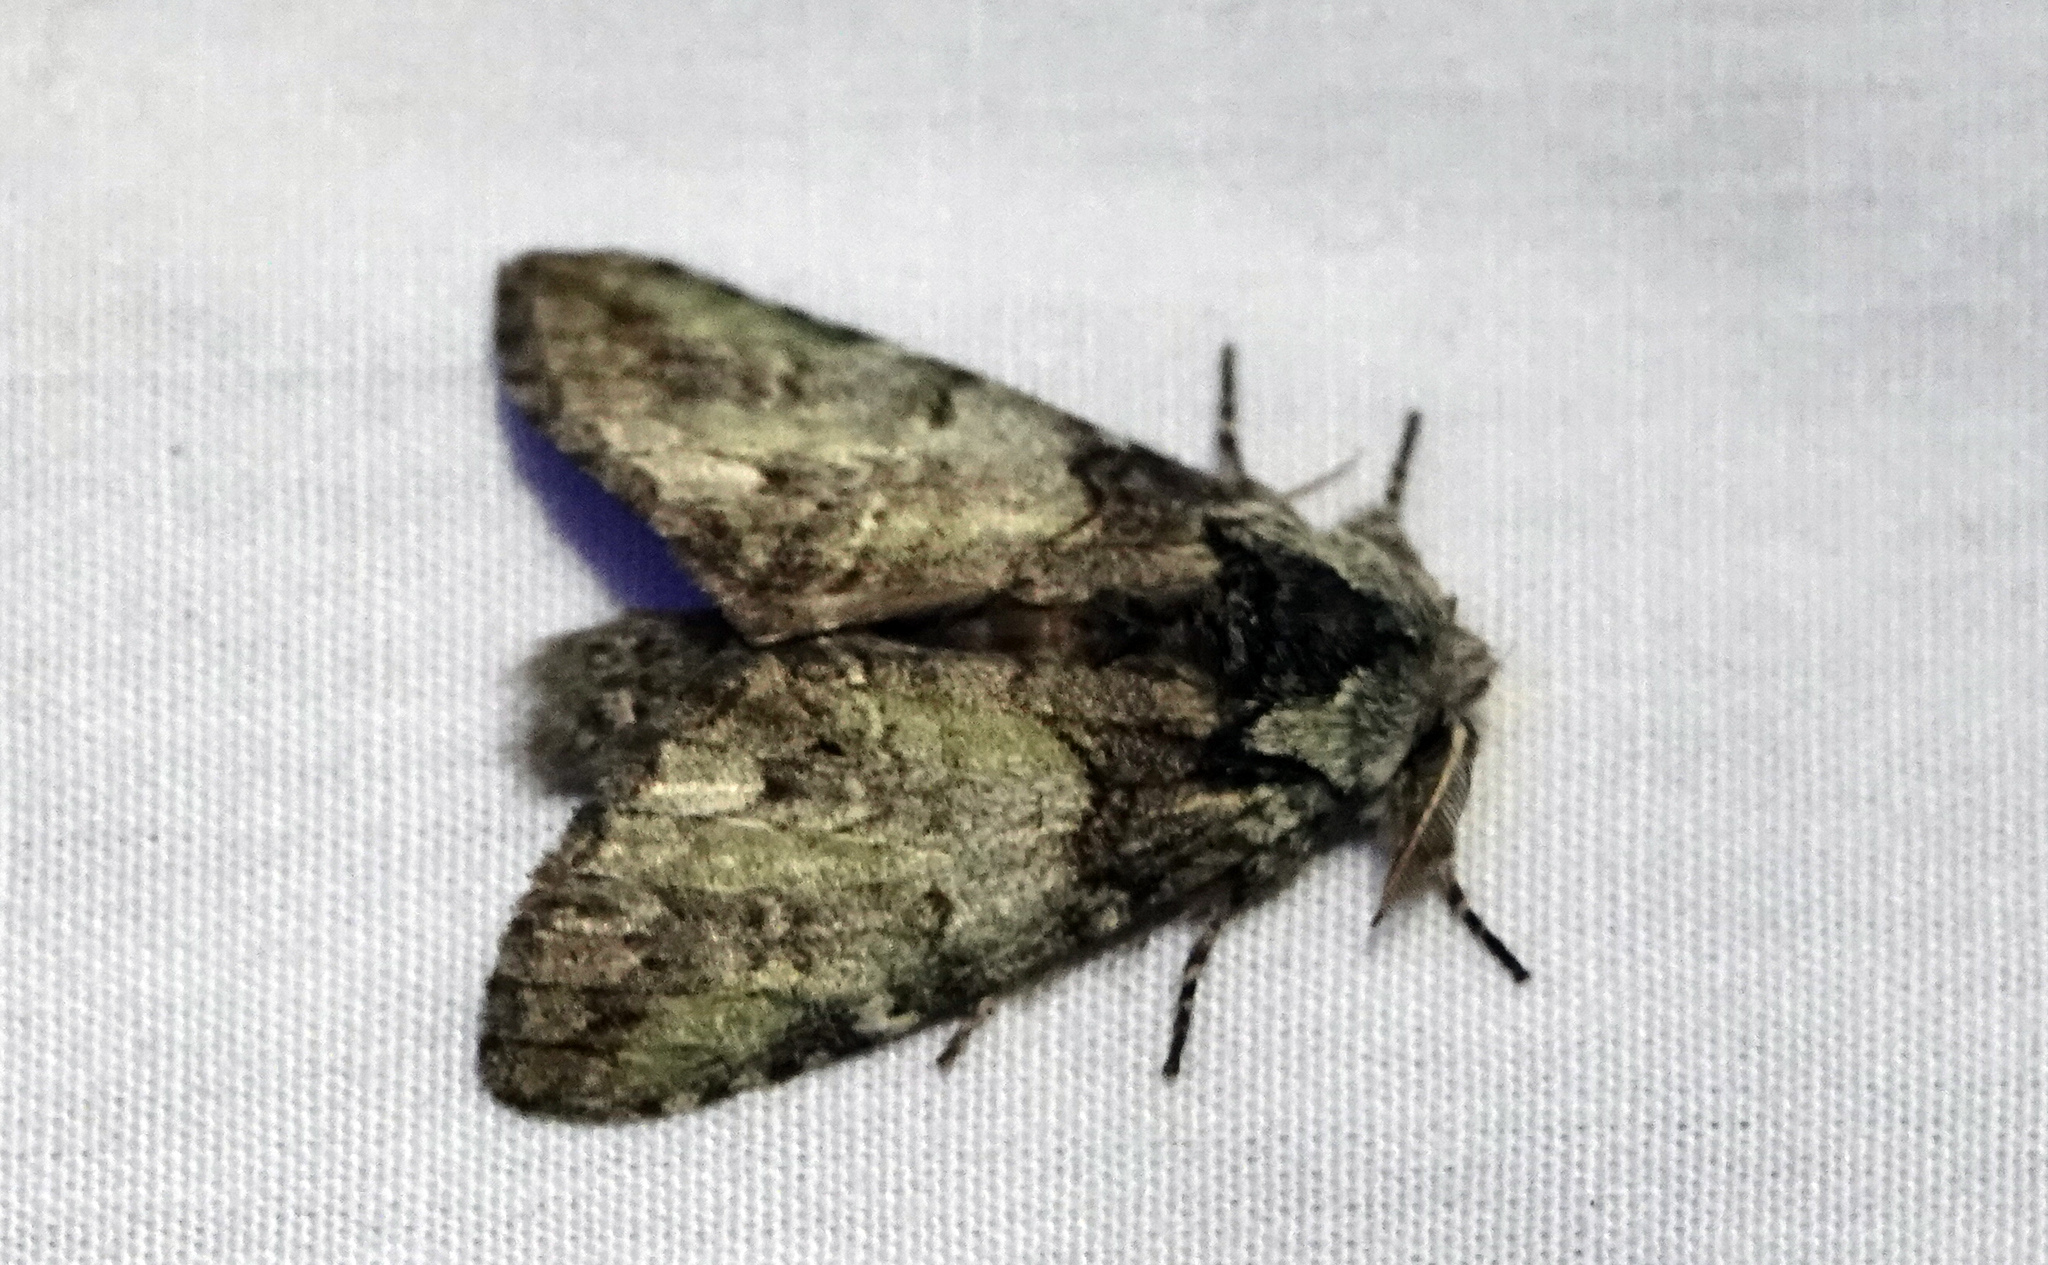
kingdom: Animalia
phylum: Arthropoda
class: Insecta
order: Lepidoptera
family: Notodontidae
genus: Macrurocampa
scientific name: Macrurocampa marthesia
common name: Mottled prominent
